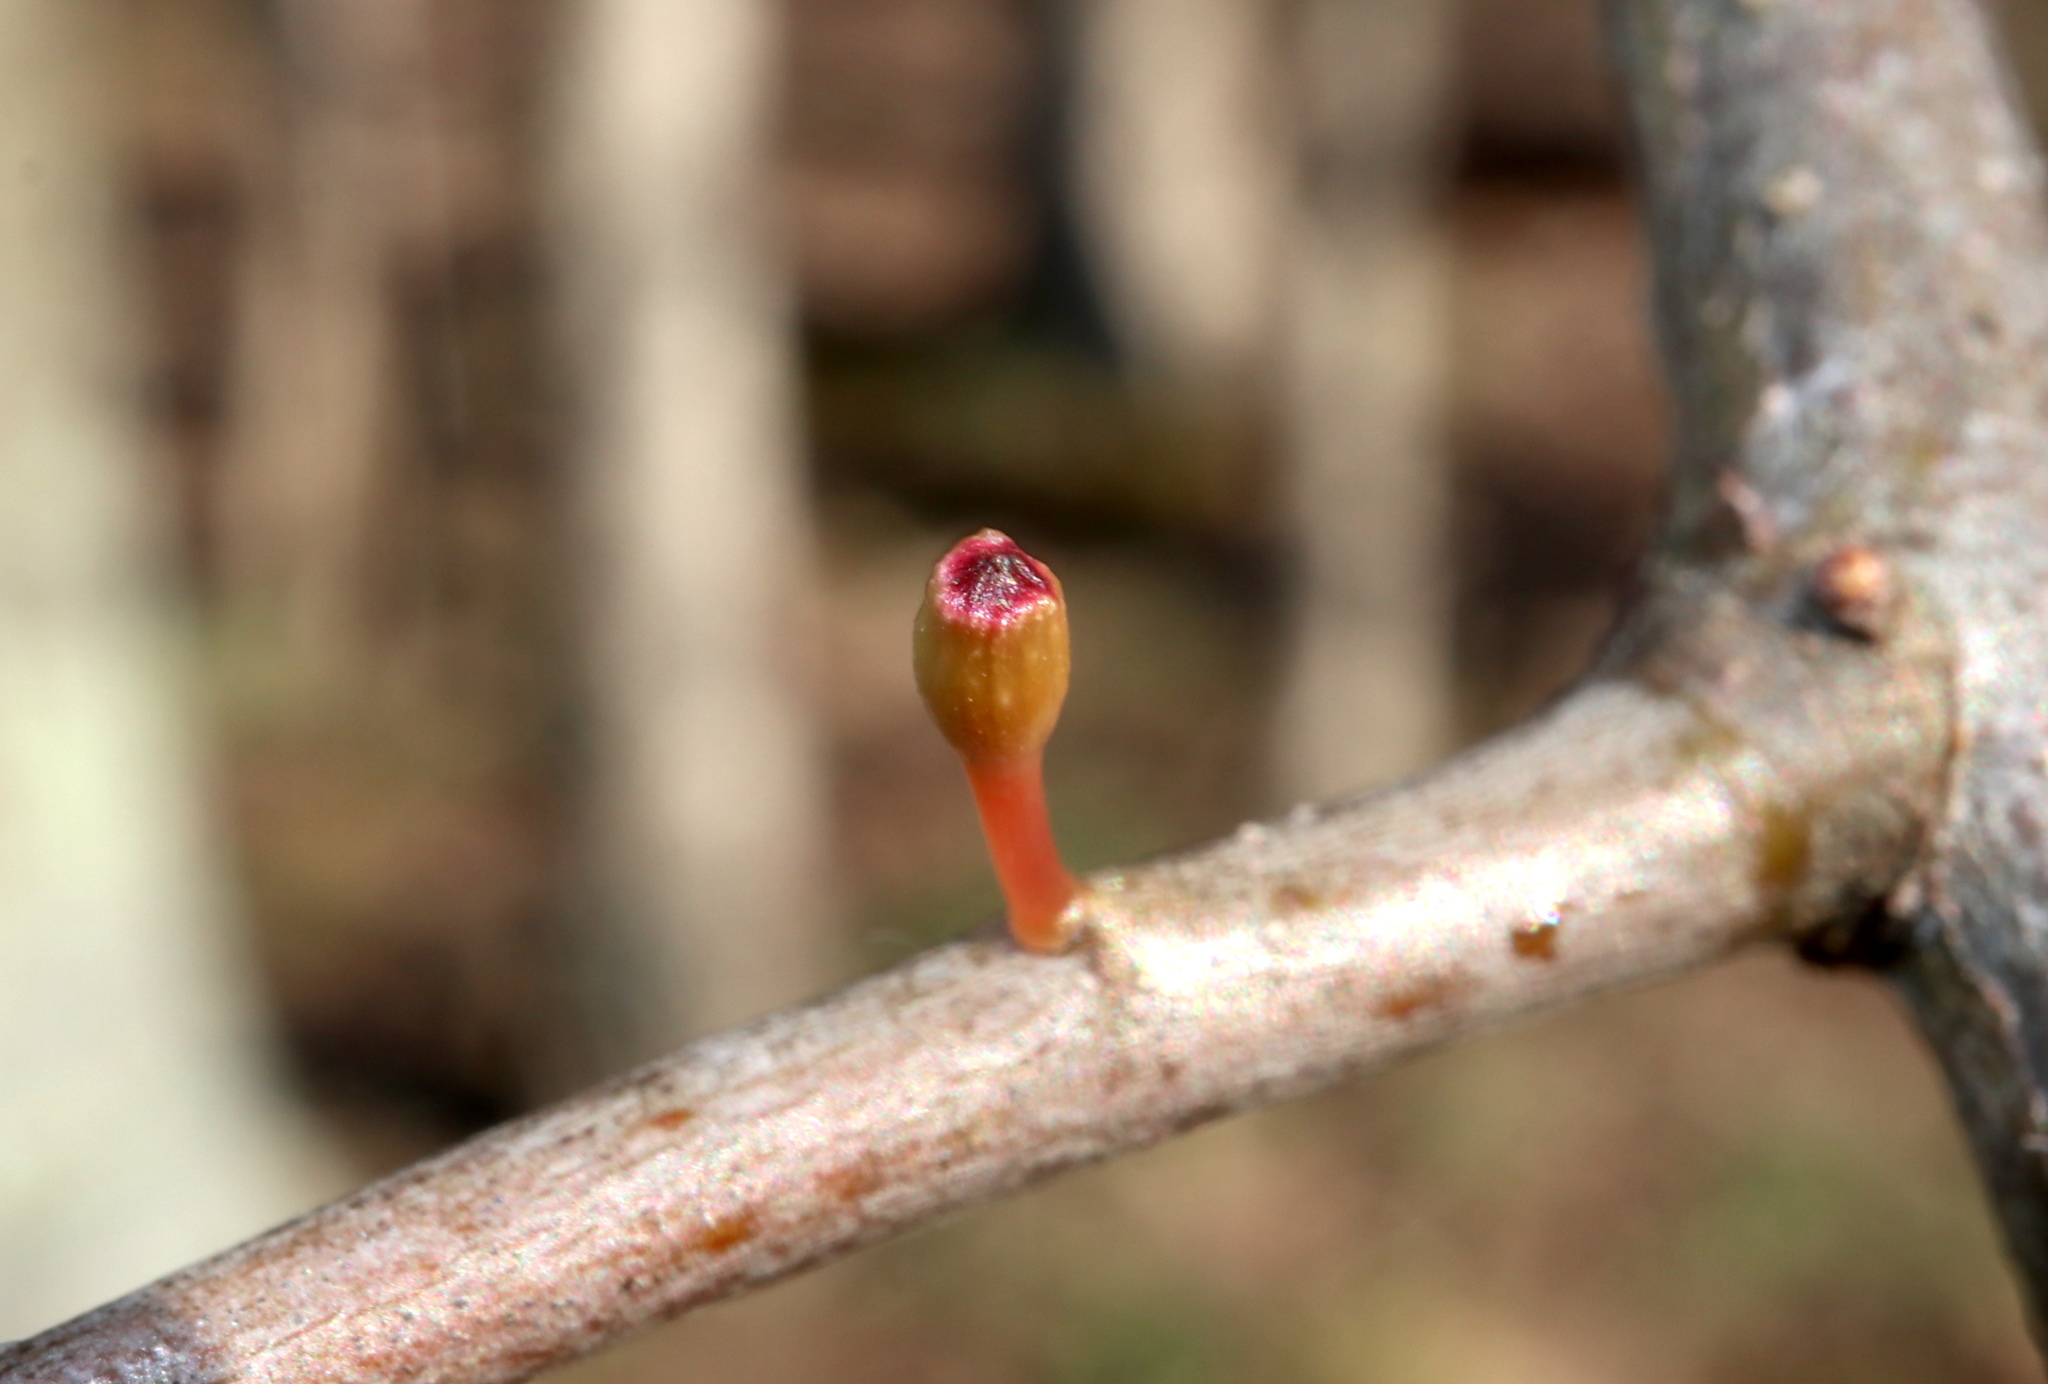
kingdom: Animalia
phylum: Arthropoda
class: Insecta
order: Hymenoptera
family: Cynipidae
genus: Callirhytis
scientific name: Callirhytis
